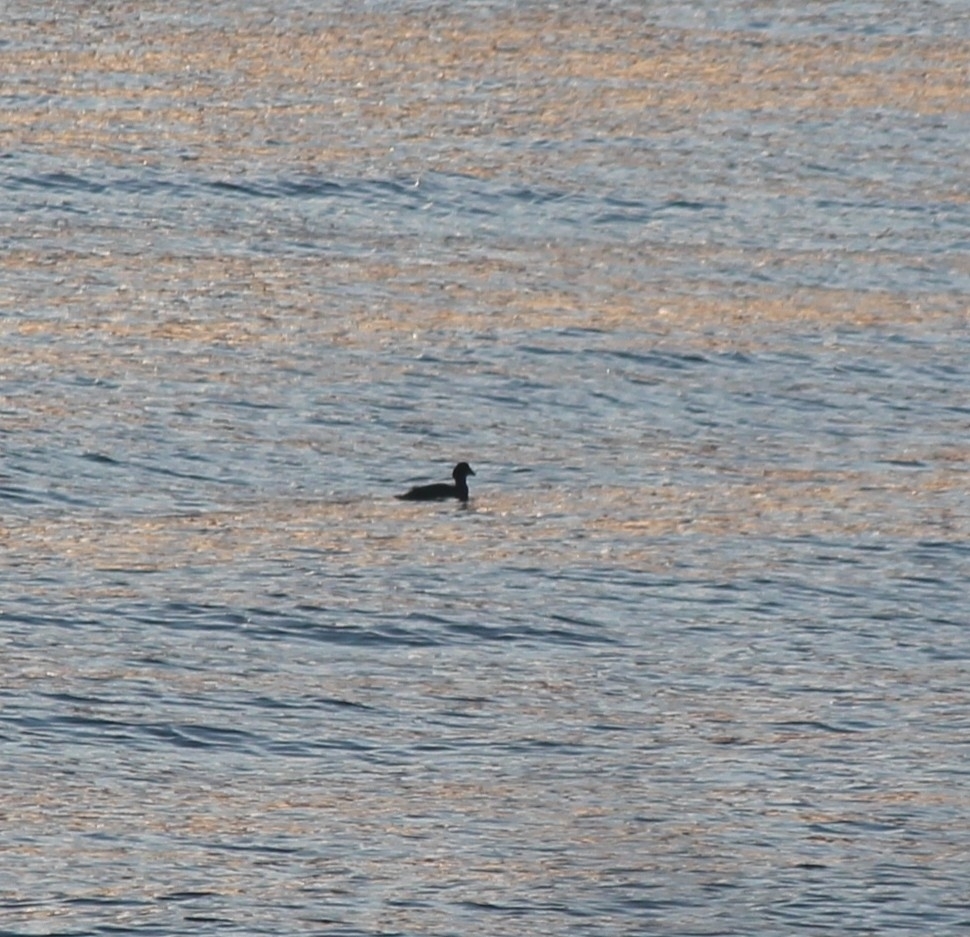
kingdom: Animalia
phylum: Chordata
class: Aves
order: Anseriformes
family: Anatidae
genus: Bucephala
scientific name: Bucephala clangula
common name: Common goldeneye
